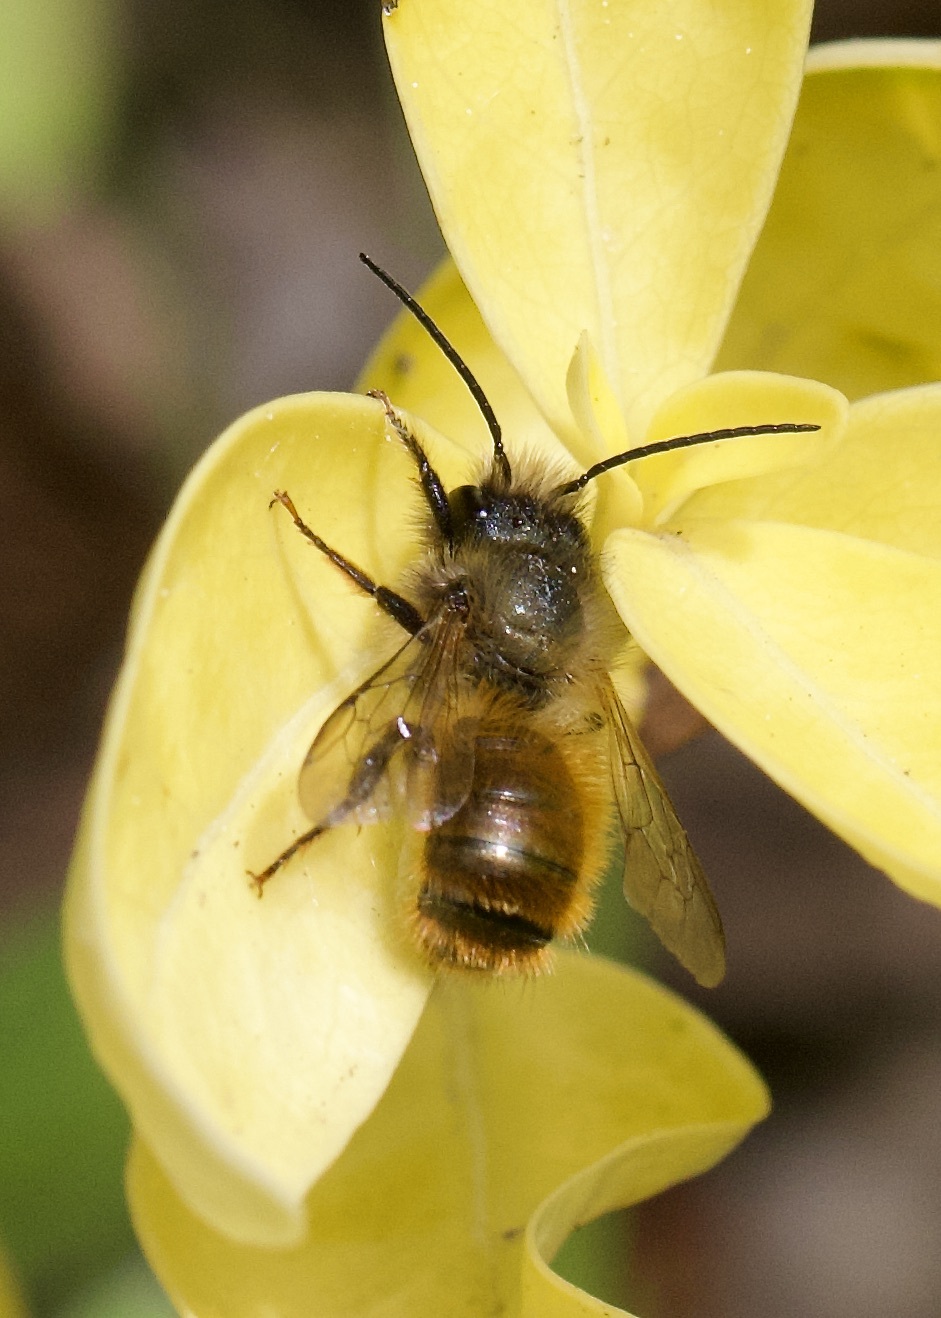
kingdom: Animalia
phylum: Arthropoda
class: Insecta
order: Hymenoptera
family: Megachilidae
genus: Osmia
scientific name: Osmia bicornis
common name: Red mason bee
